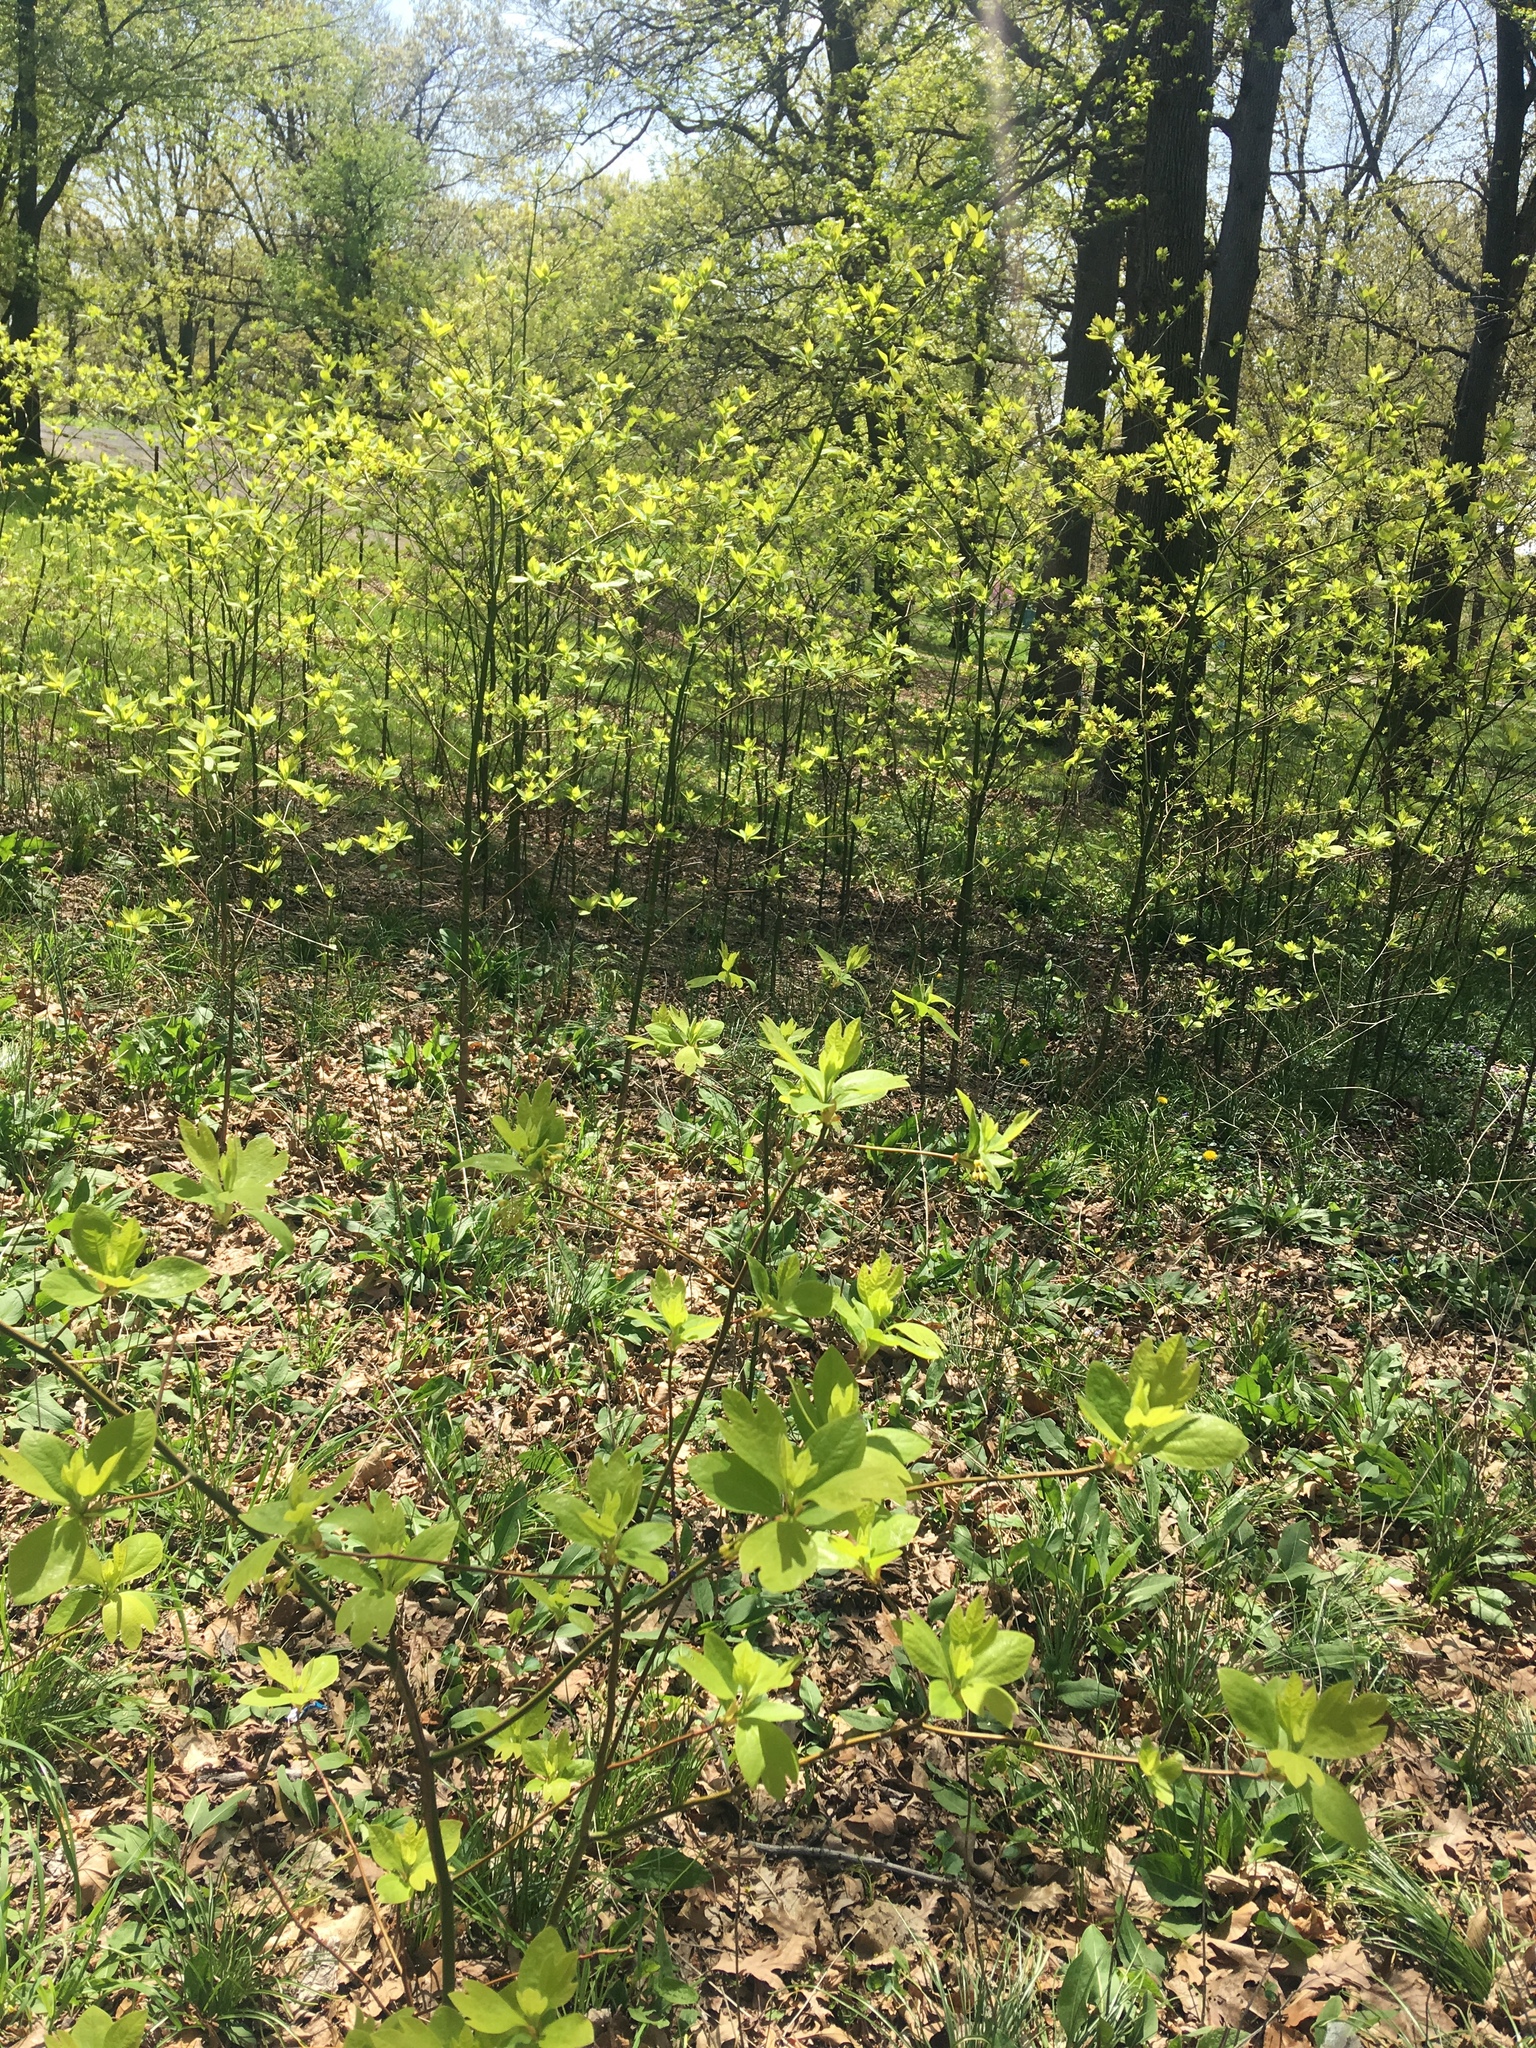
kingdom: Plantae
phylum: Tracheophyta
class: Magnoliopsida
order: Laurales
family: Lauraceae
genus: Sassafras
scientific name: Sassafras albidum
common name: Sassafras
